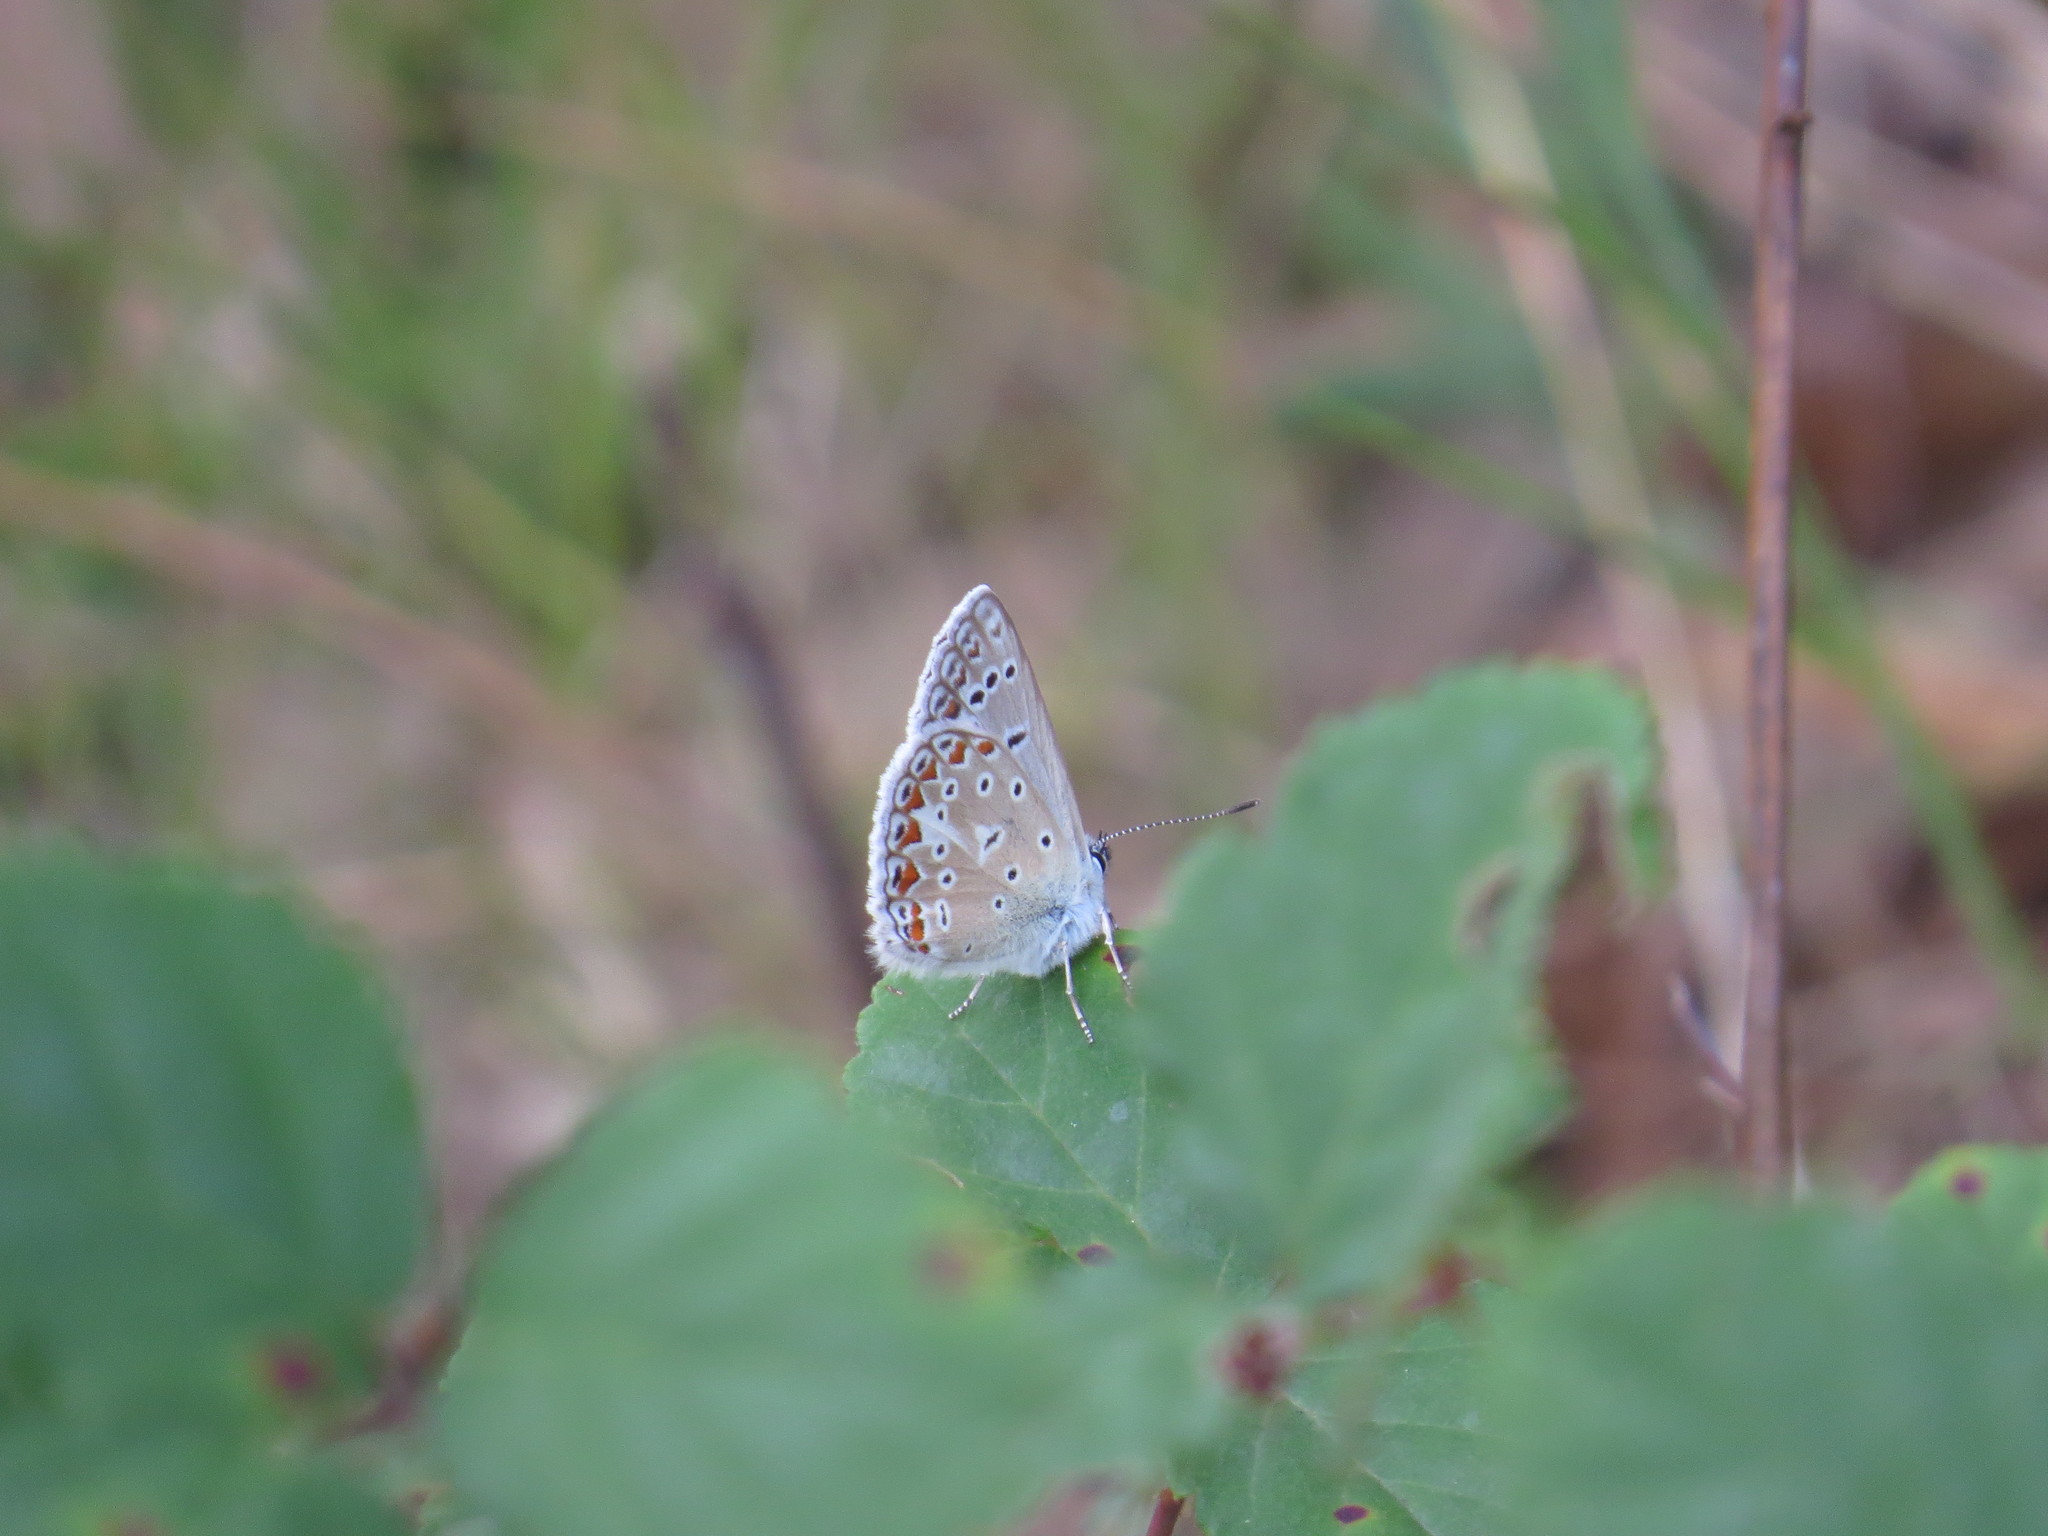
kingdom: Animalia
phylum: Arthropoda
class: Insecta
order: Lepidoptera
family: Lycaenidae
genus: Polyommatus
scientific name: Polyommatus icarus
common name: Common blue
